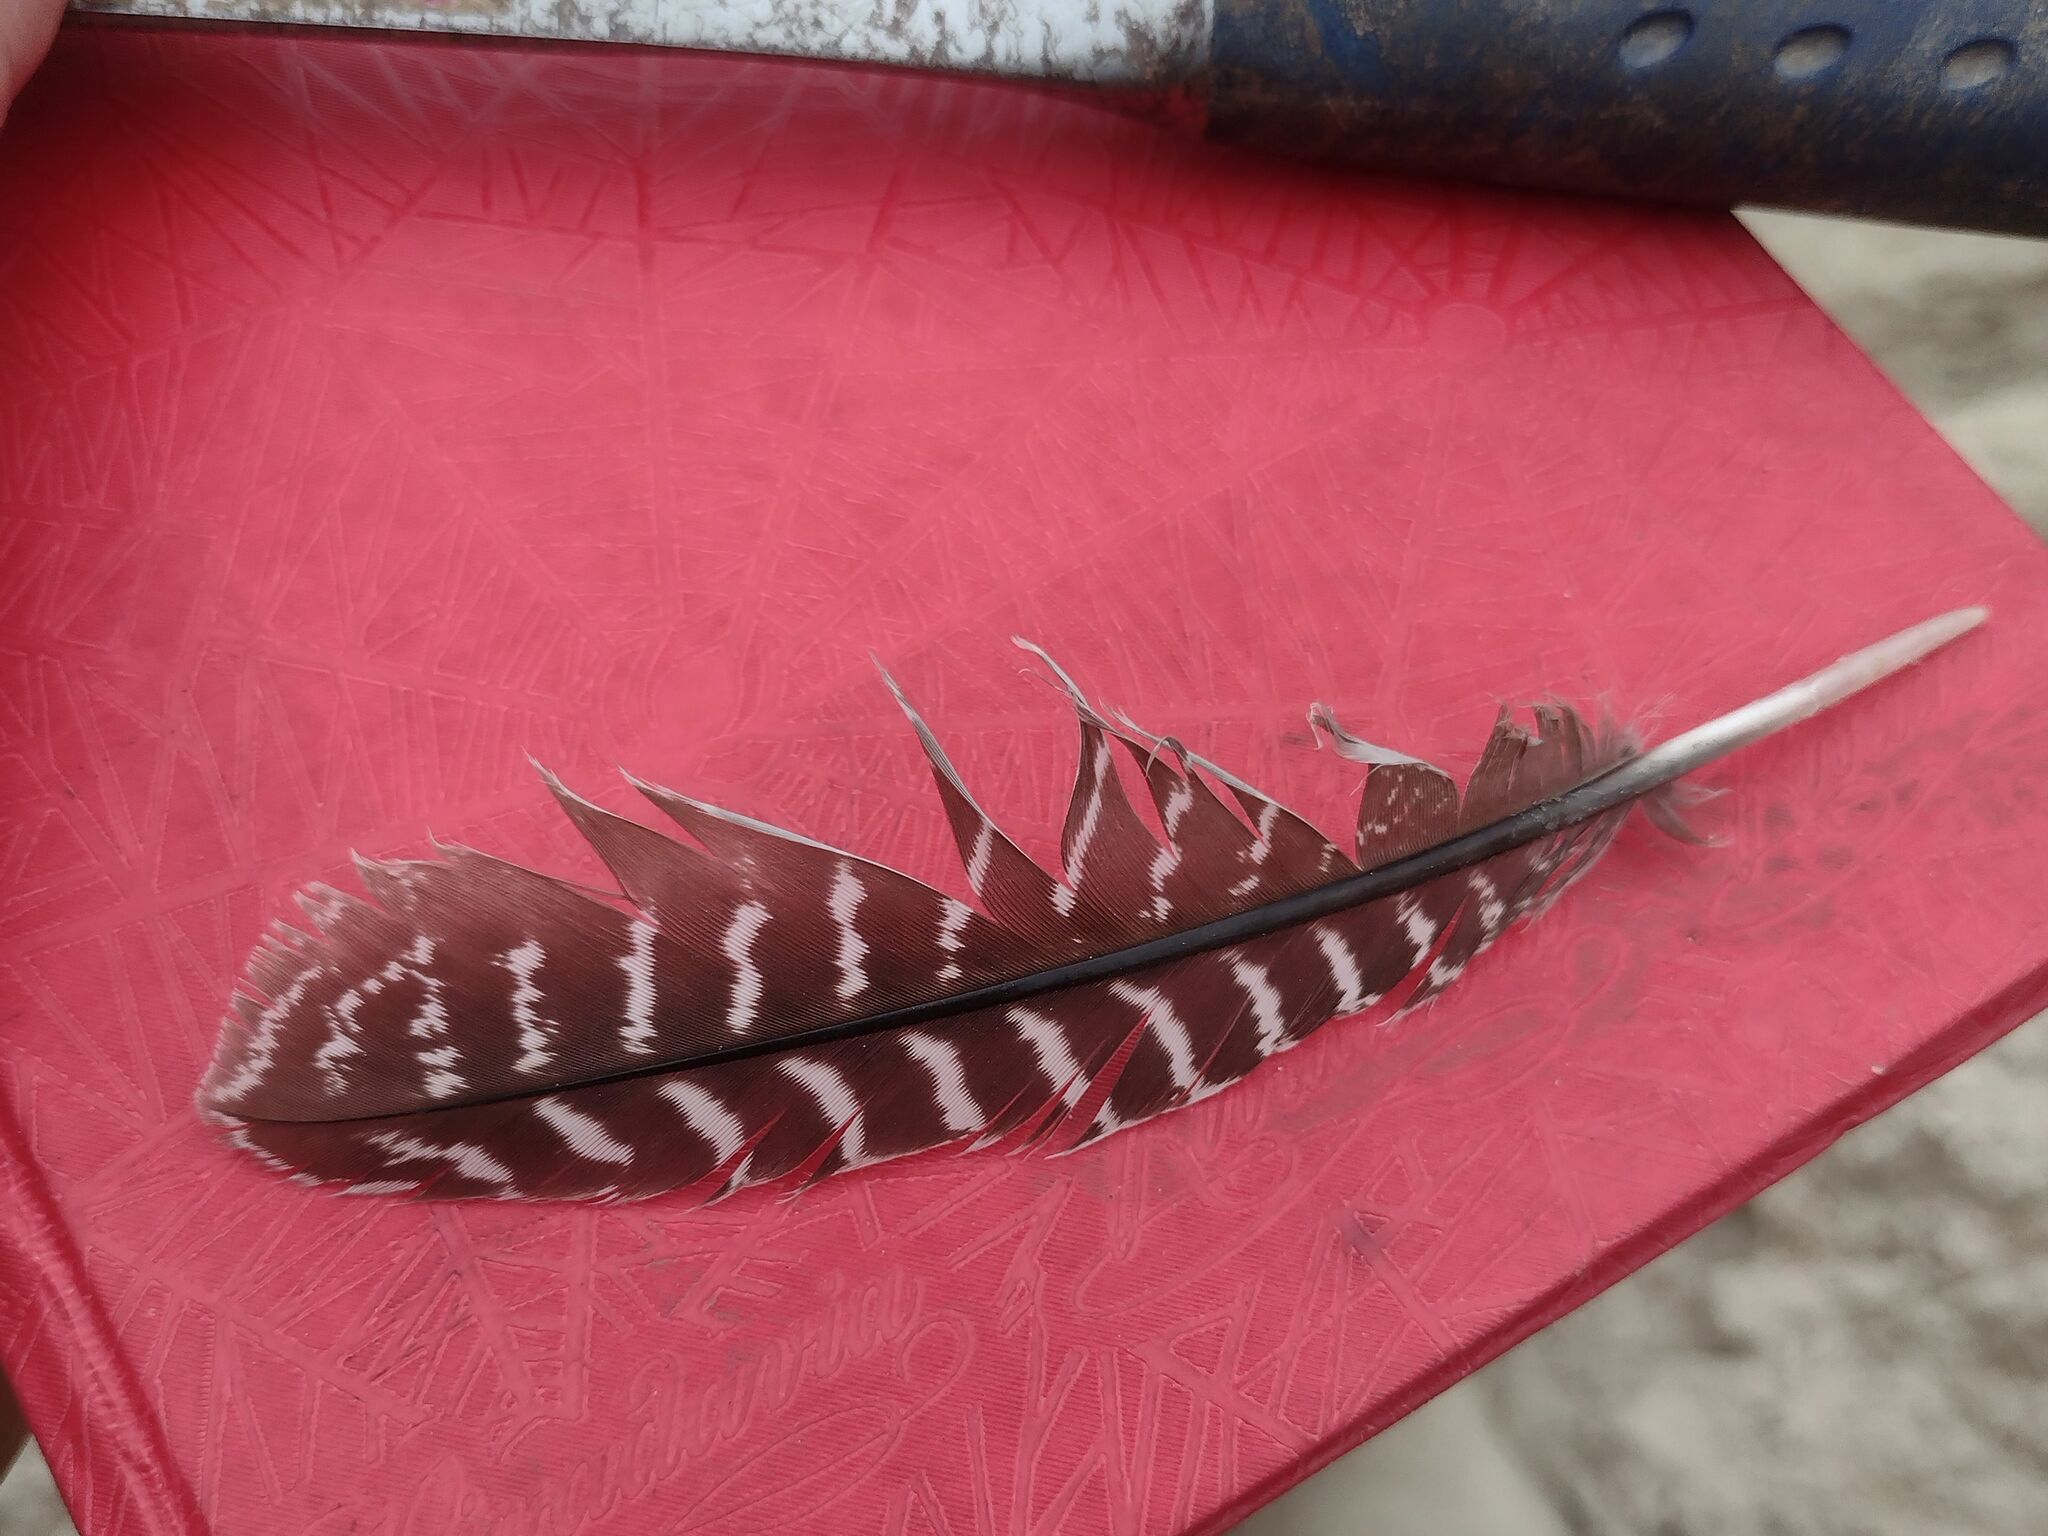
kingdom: Animalia
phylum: Chordata
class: Aves
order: Tinamiformes
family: Tinamidae
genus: Eudromia
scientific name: Eudromia elegans
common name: Elegant crested tinamou
